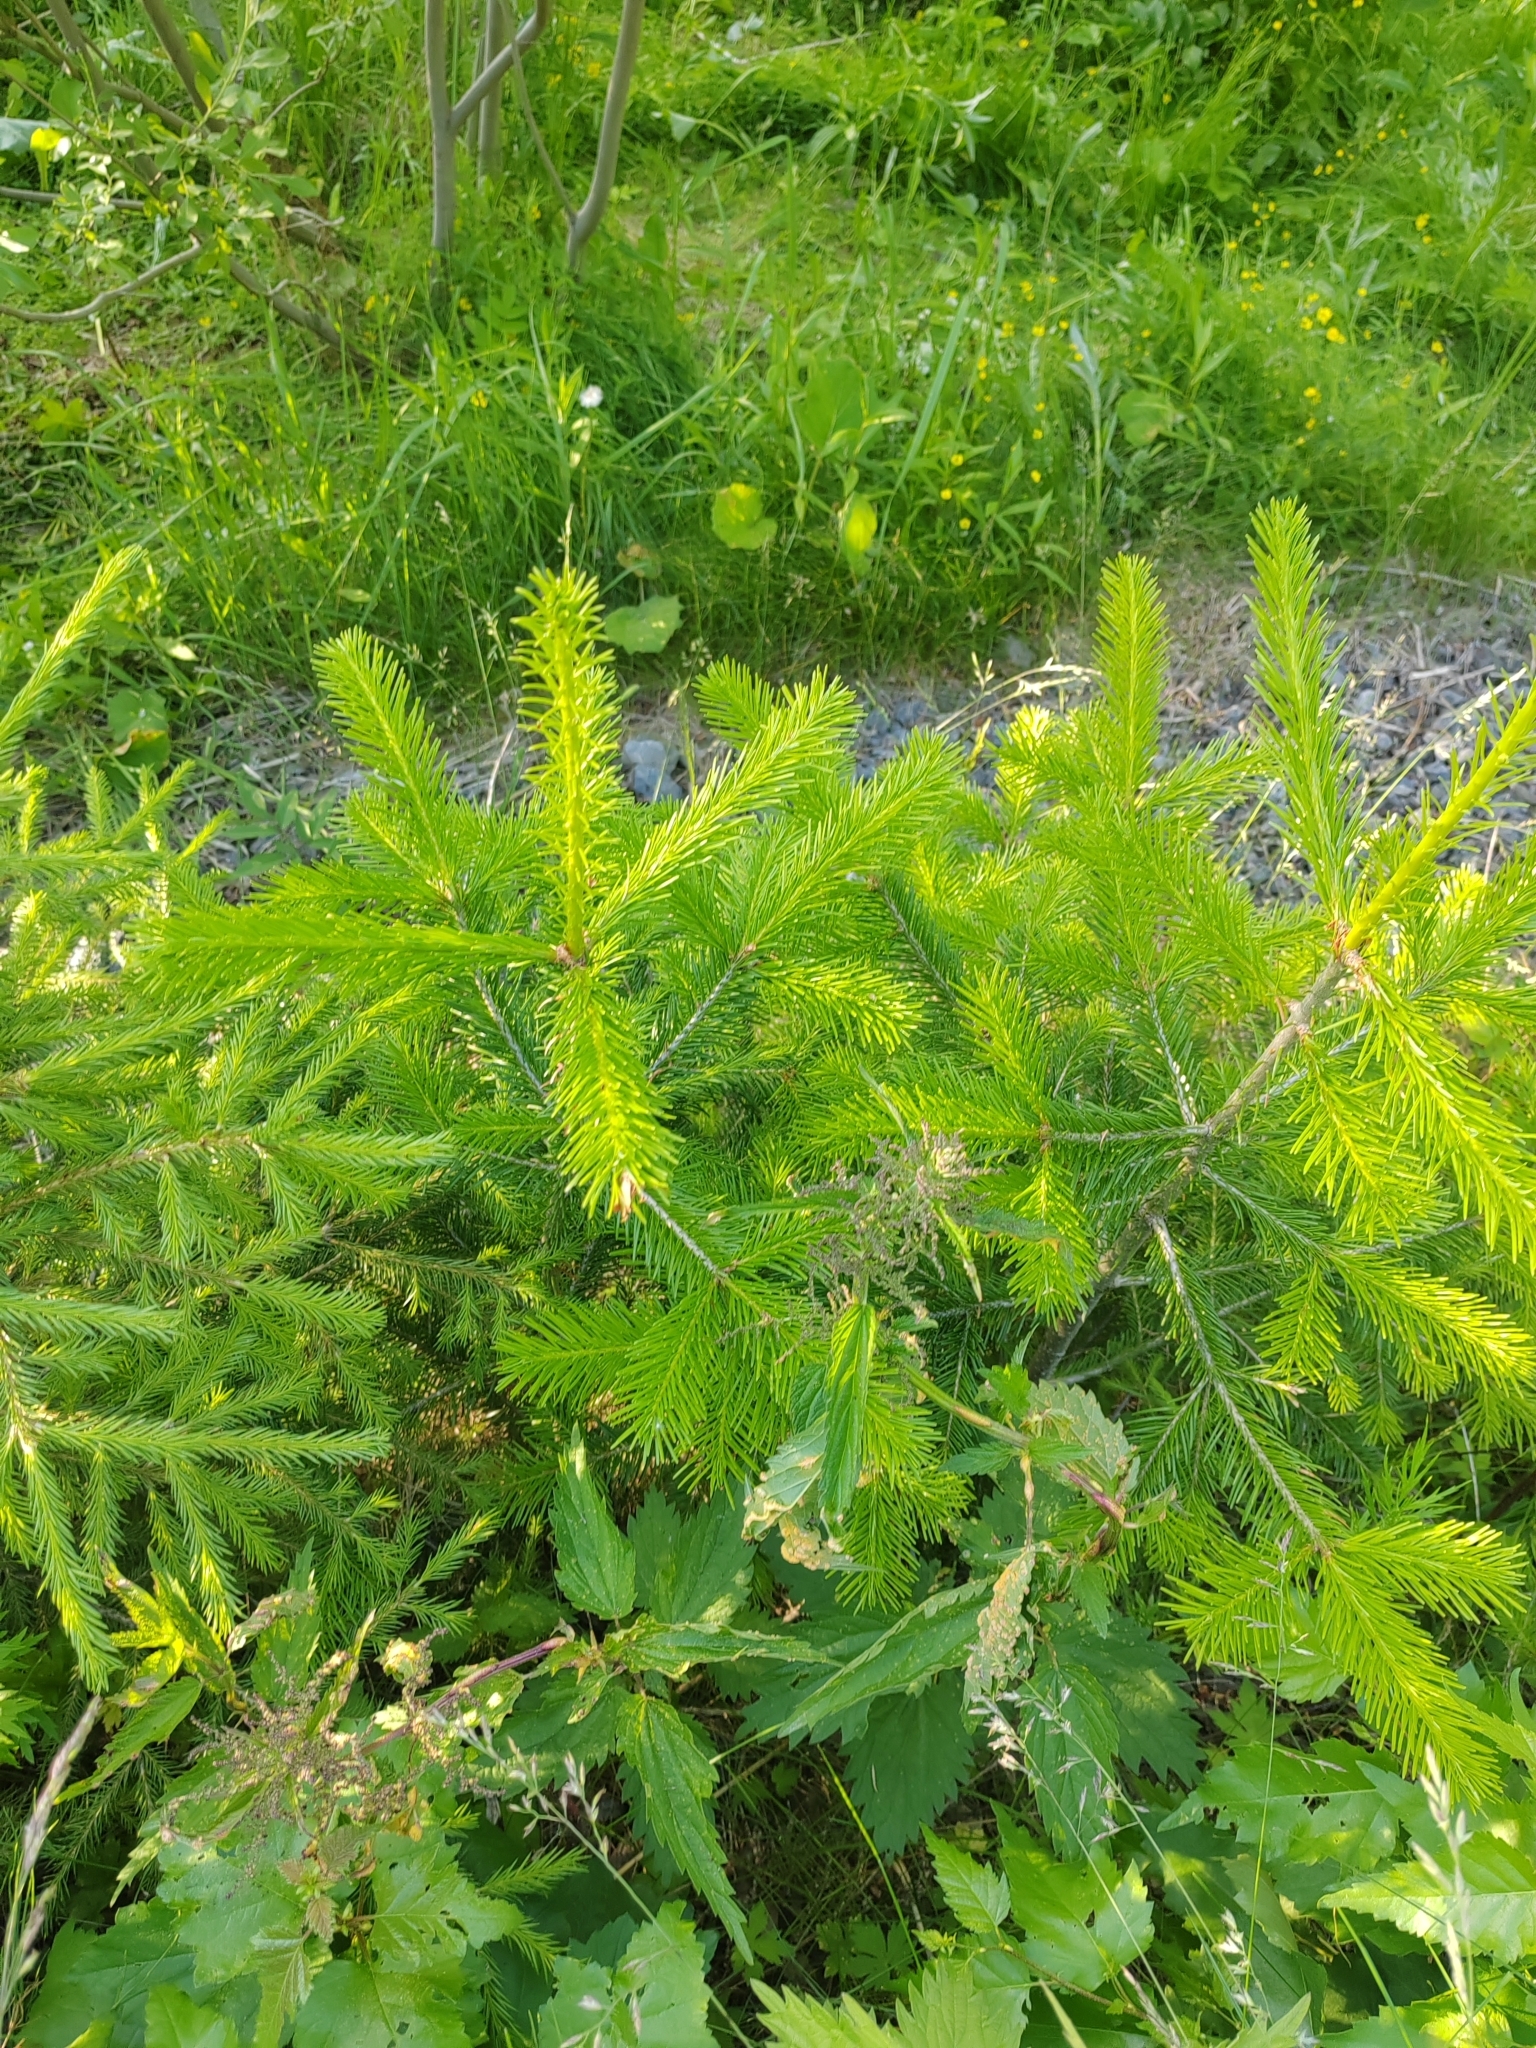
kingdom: Plantae
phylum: Tracheophyta
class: Pinopsida
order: Pinales
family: Pinaceae
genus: Abies
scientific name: Abies sibirica
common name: Siberian fir
